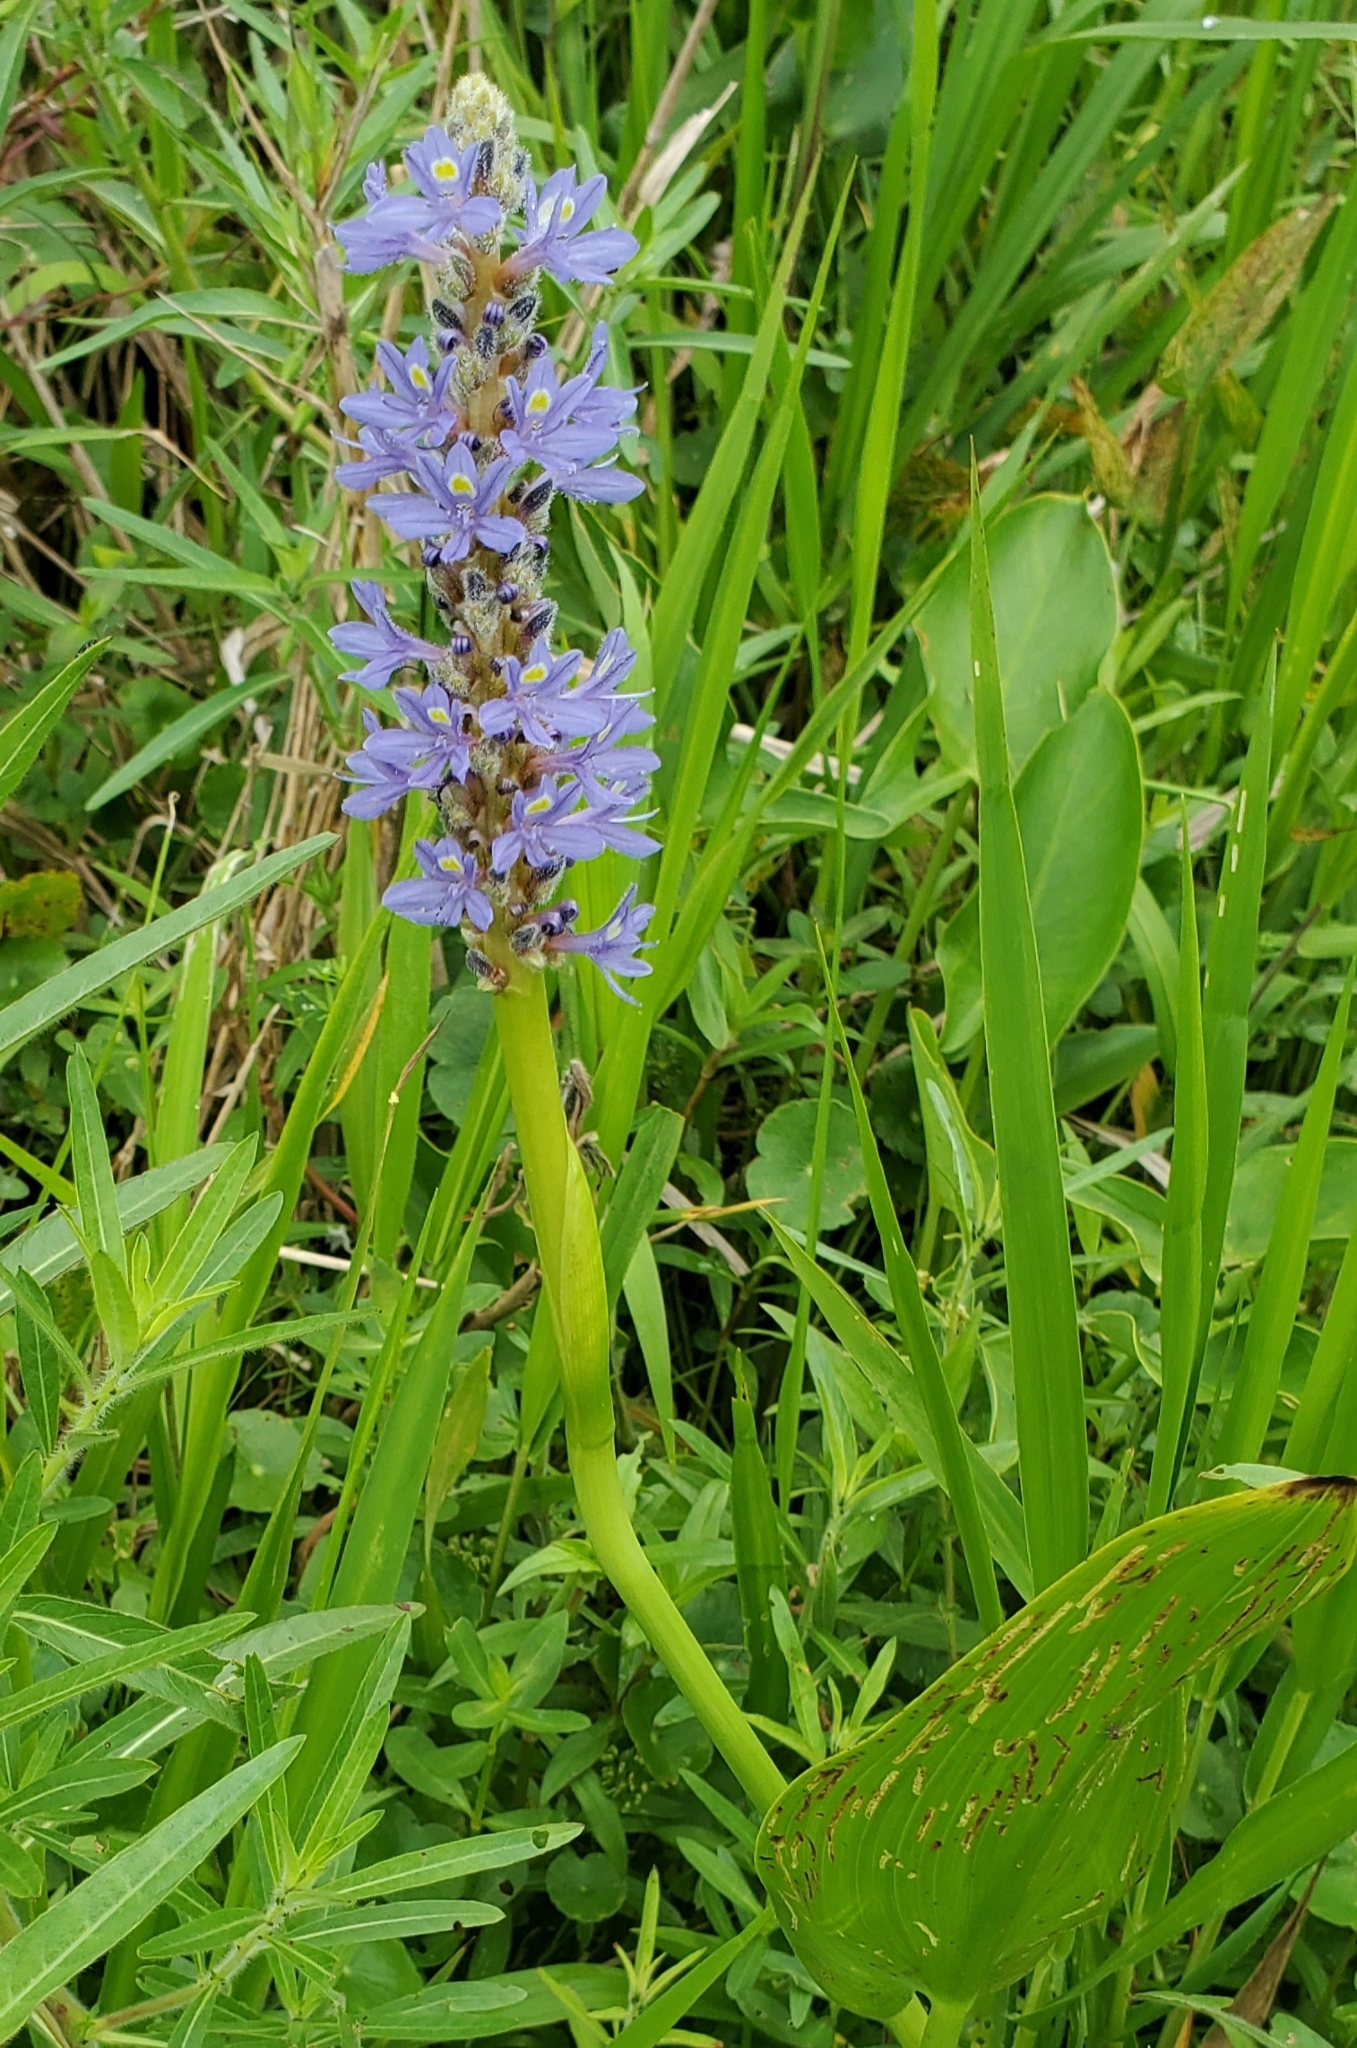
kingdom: Plantae
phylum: Tracheophyta
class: Liliopsida
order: Commelinales
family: Pontederiaceae
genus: Pontederia
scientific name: Pontederia cordata
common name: Pickerelweed
